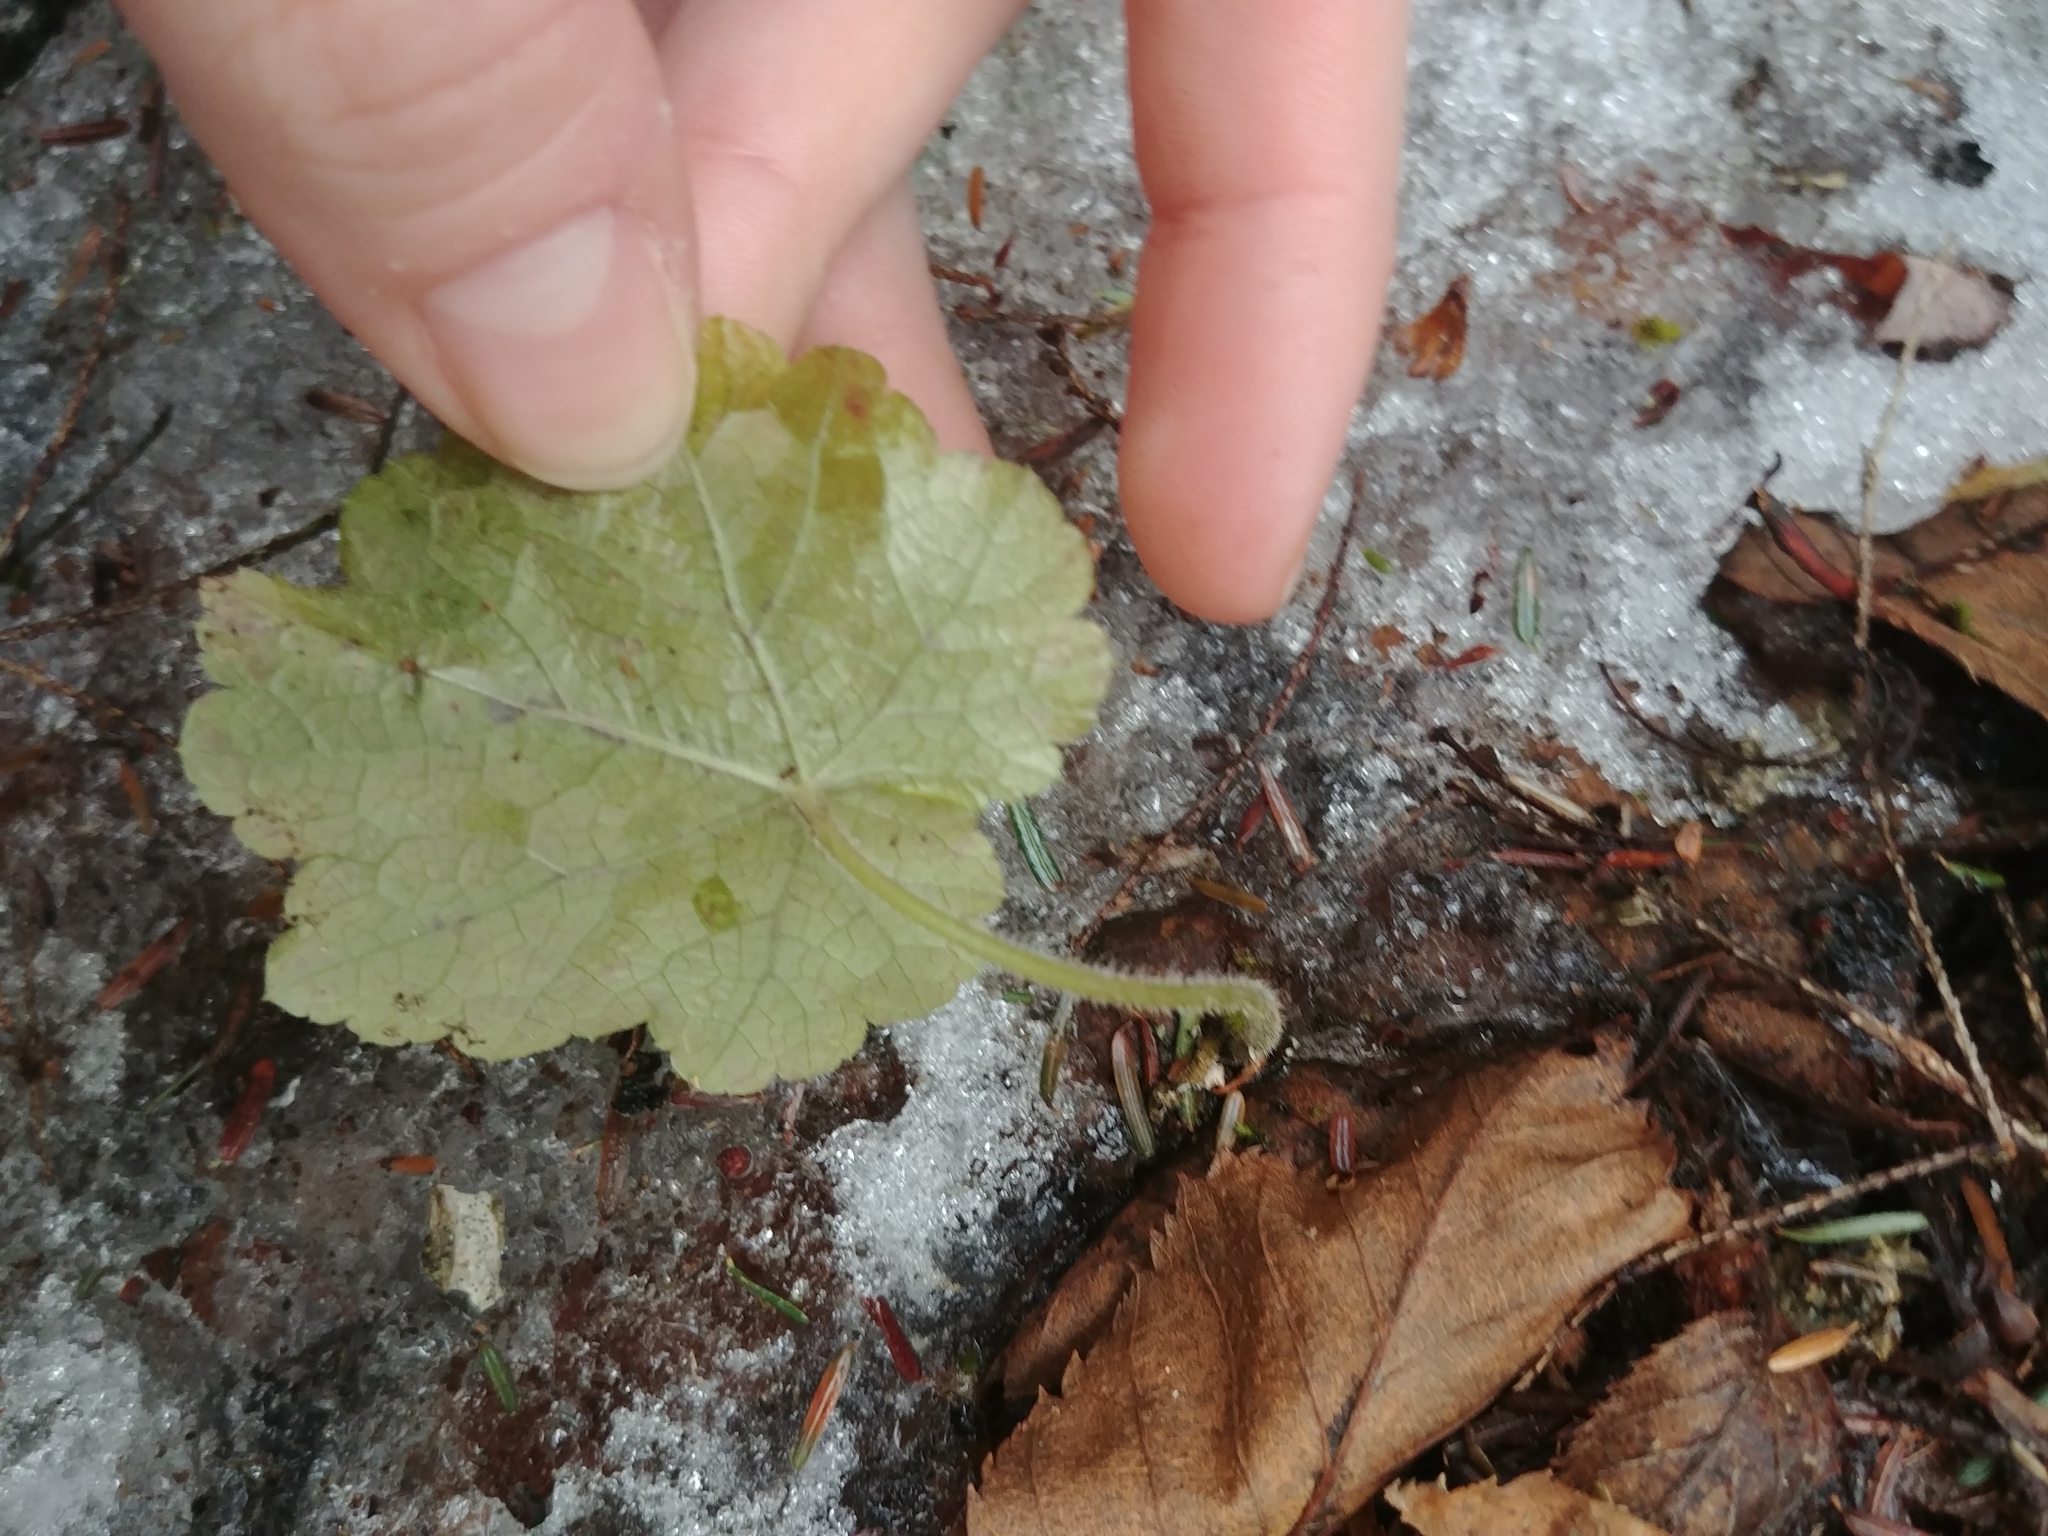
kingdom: Plantae
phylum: Tracheophyta
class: Magnoliopsida
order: Saxifragales
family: Saxifragaceae
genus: Tiarella
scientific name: Tiarella stolonifera
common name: Stoloniferous foamflower
